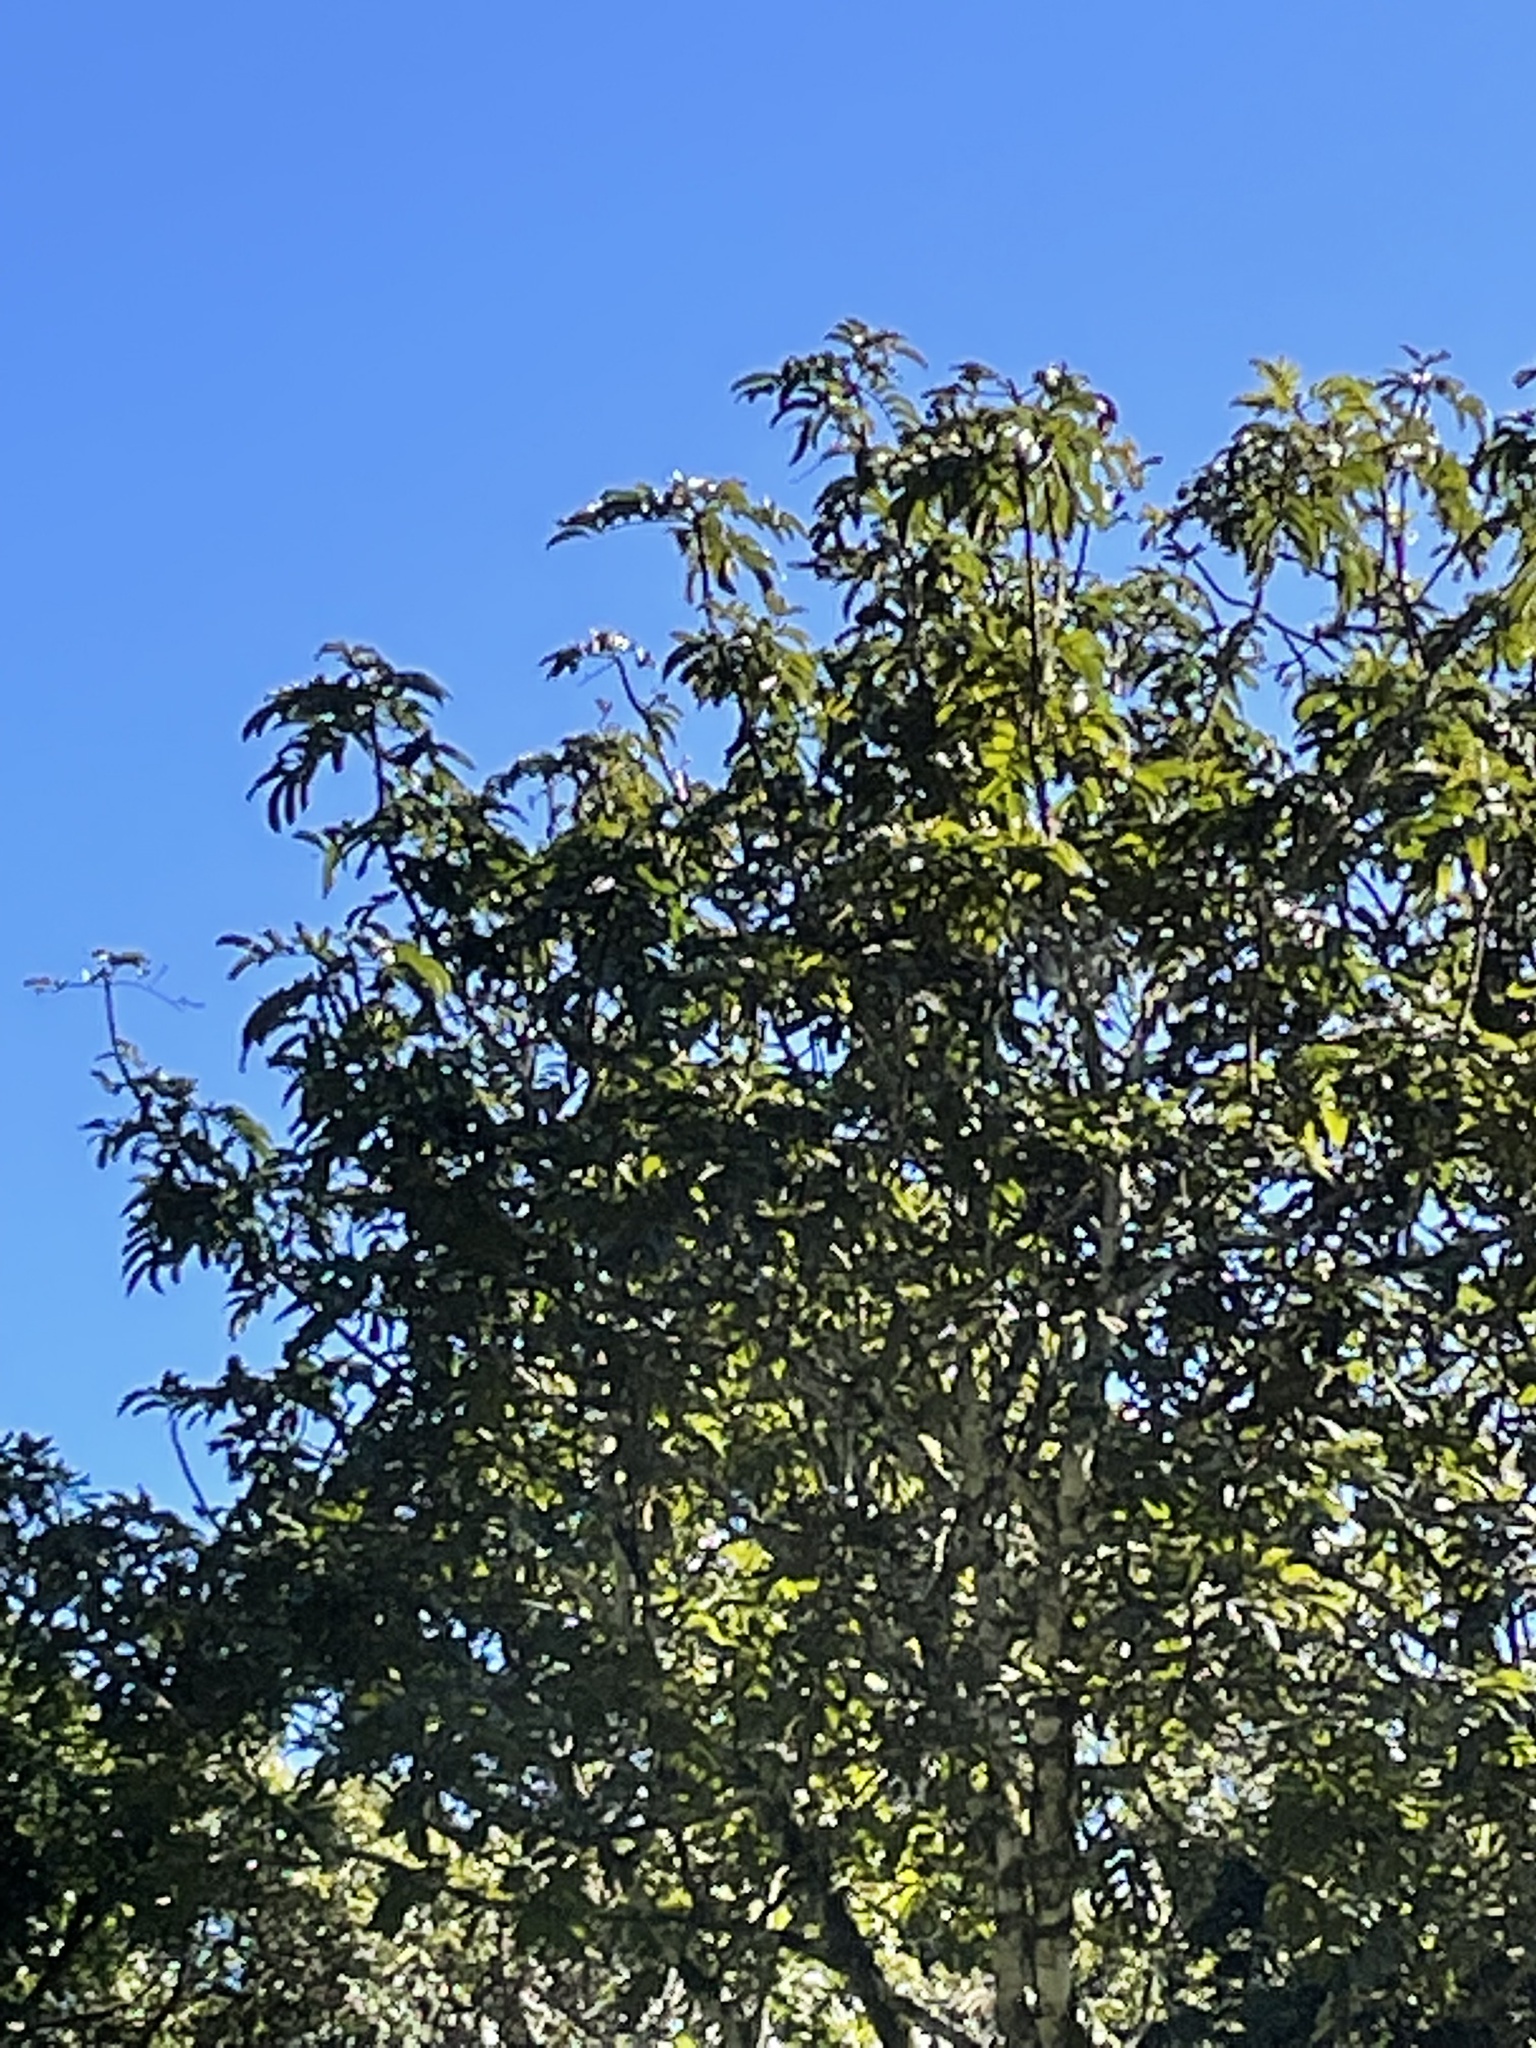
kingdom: Plantae
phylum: Tracheophyta
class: Magnoliopsida
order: Sapindales
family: Sapindaceae
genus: Diploglottis
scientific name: Diploglottis australis
